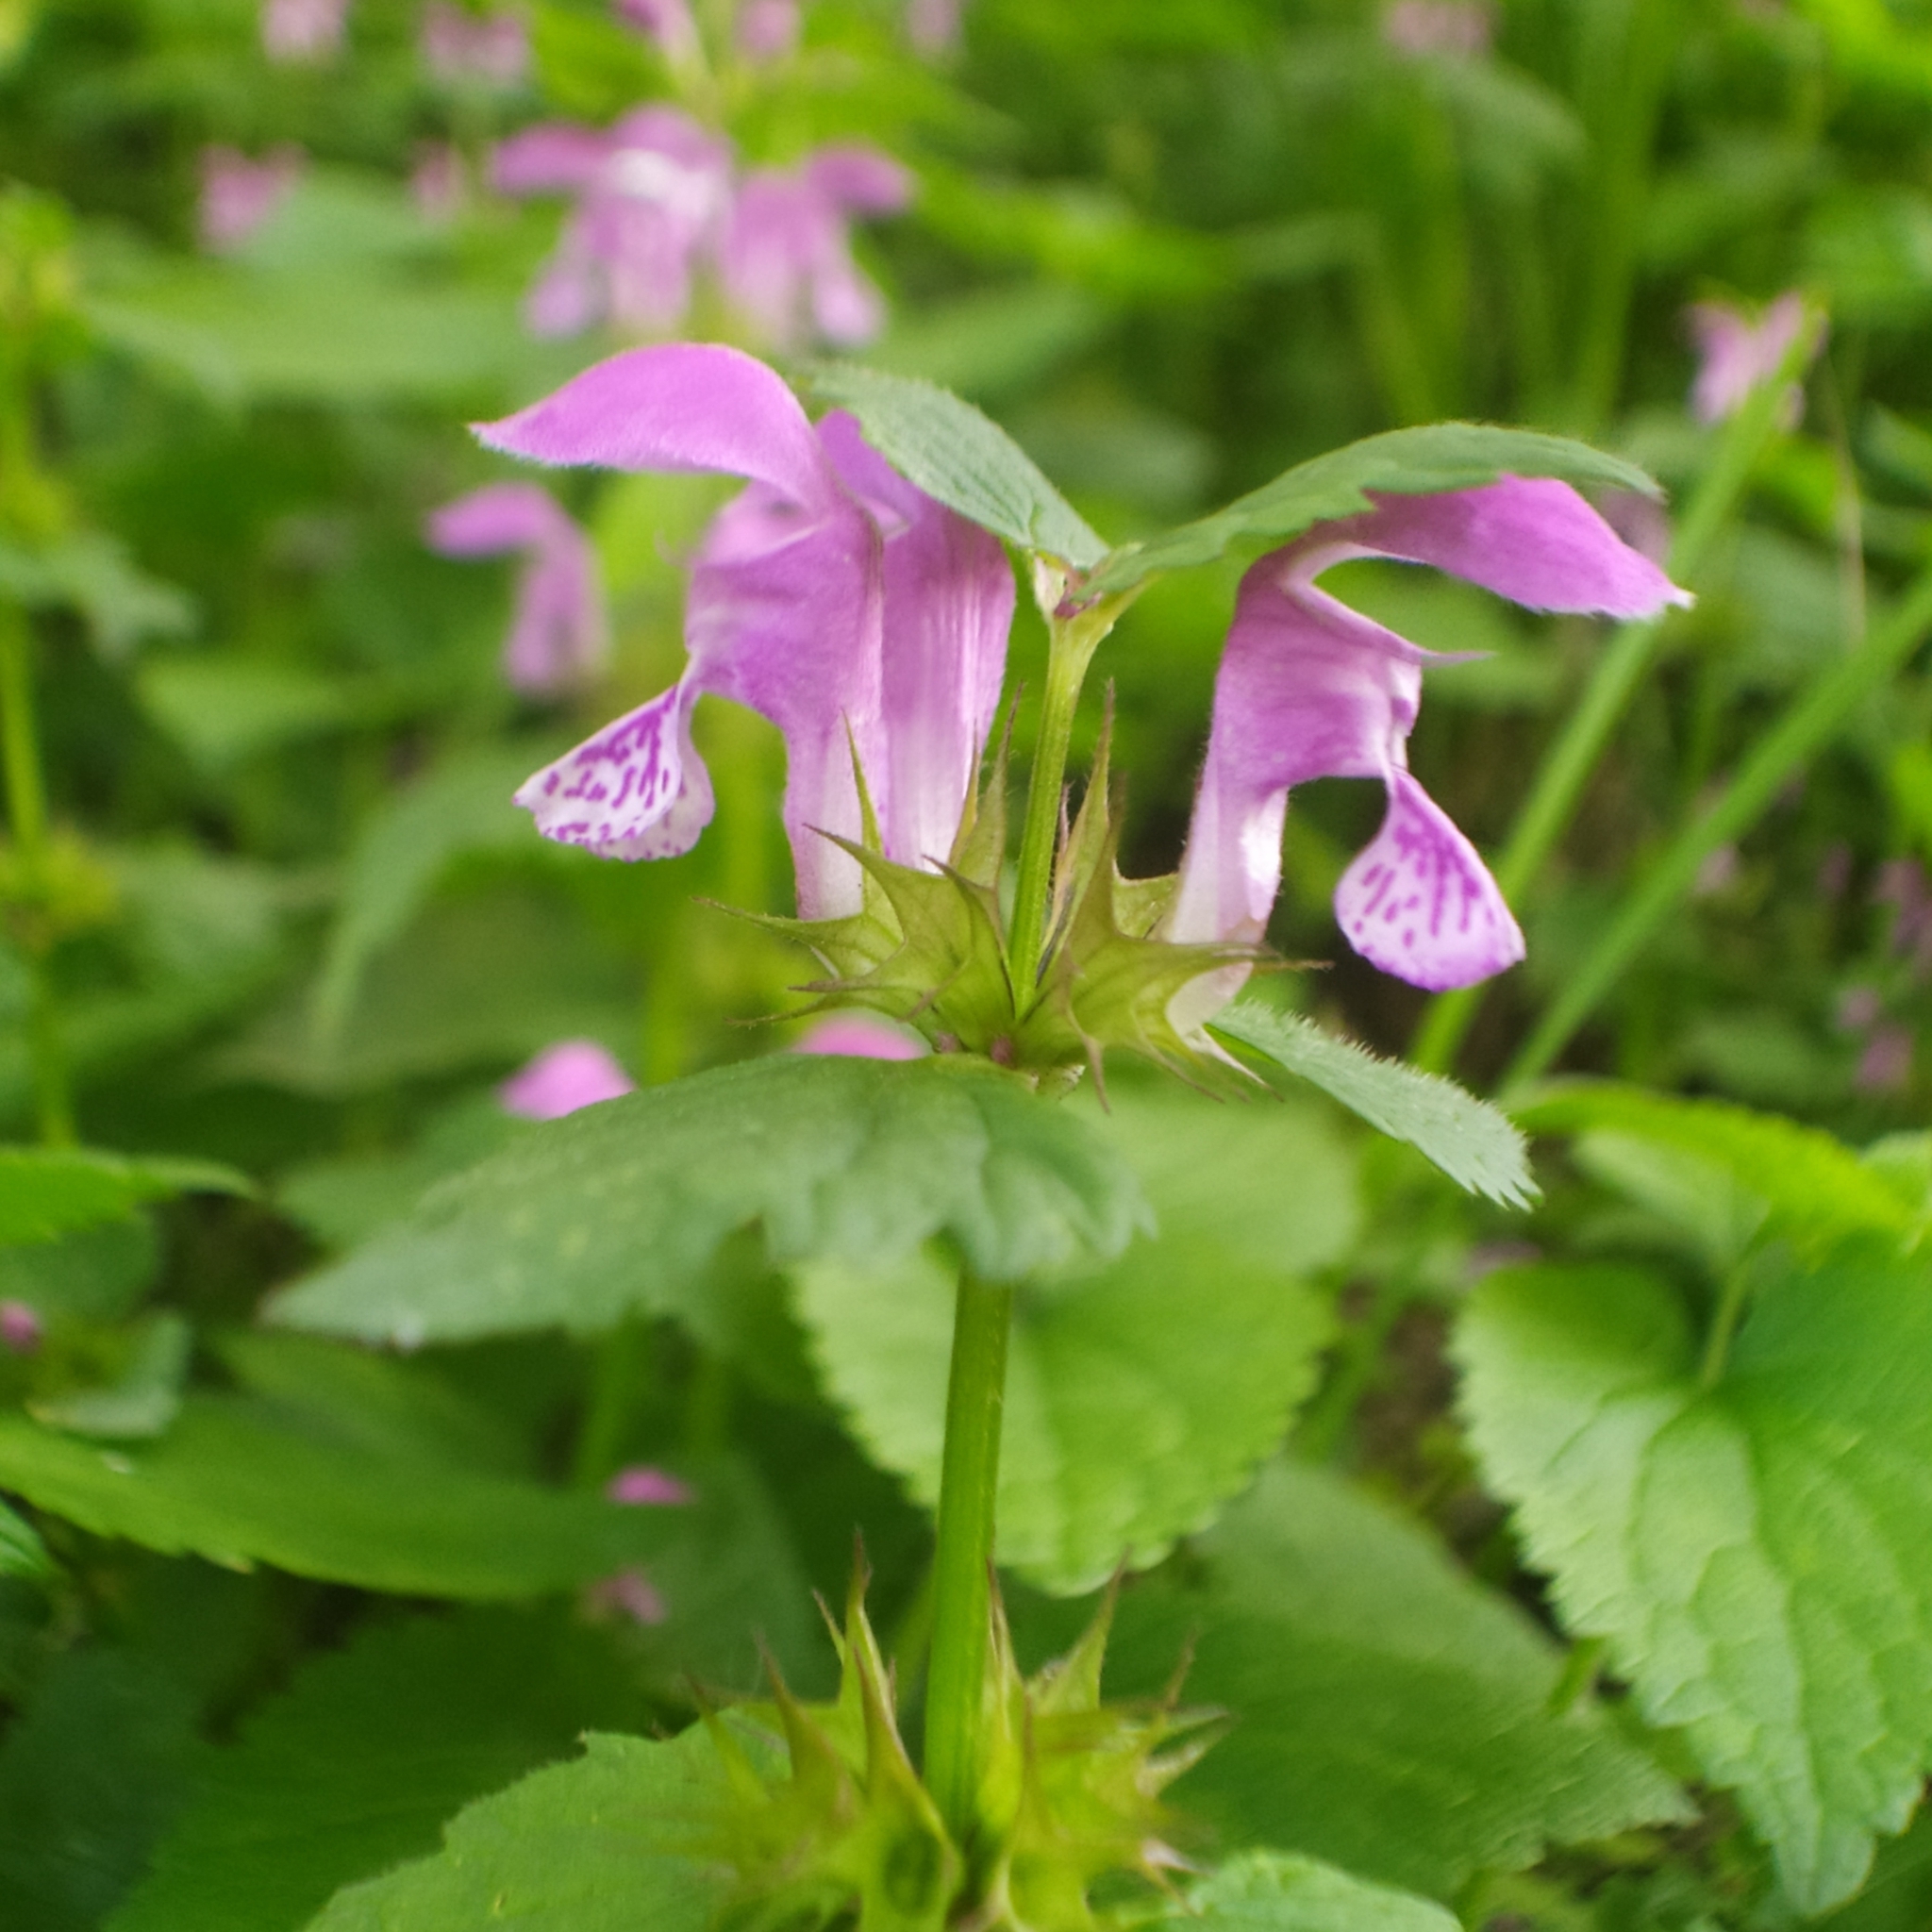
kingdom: Plantae
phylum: Tracheophyta
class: Magnoliopsida
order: Lamiales
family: Lamiaceae
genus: Lamium
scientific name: Lamium maculatum
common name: Spotted dead-nettle
